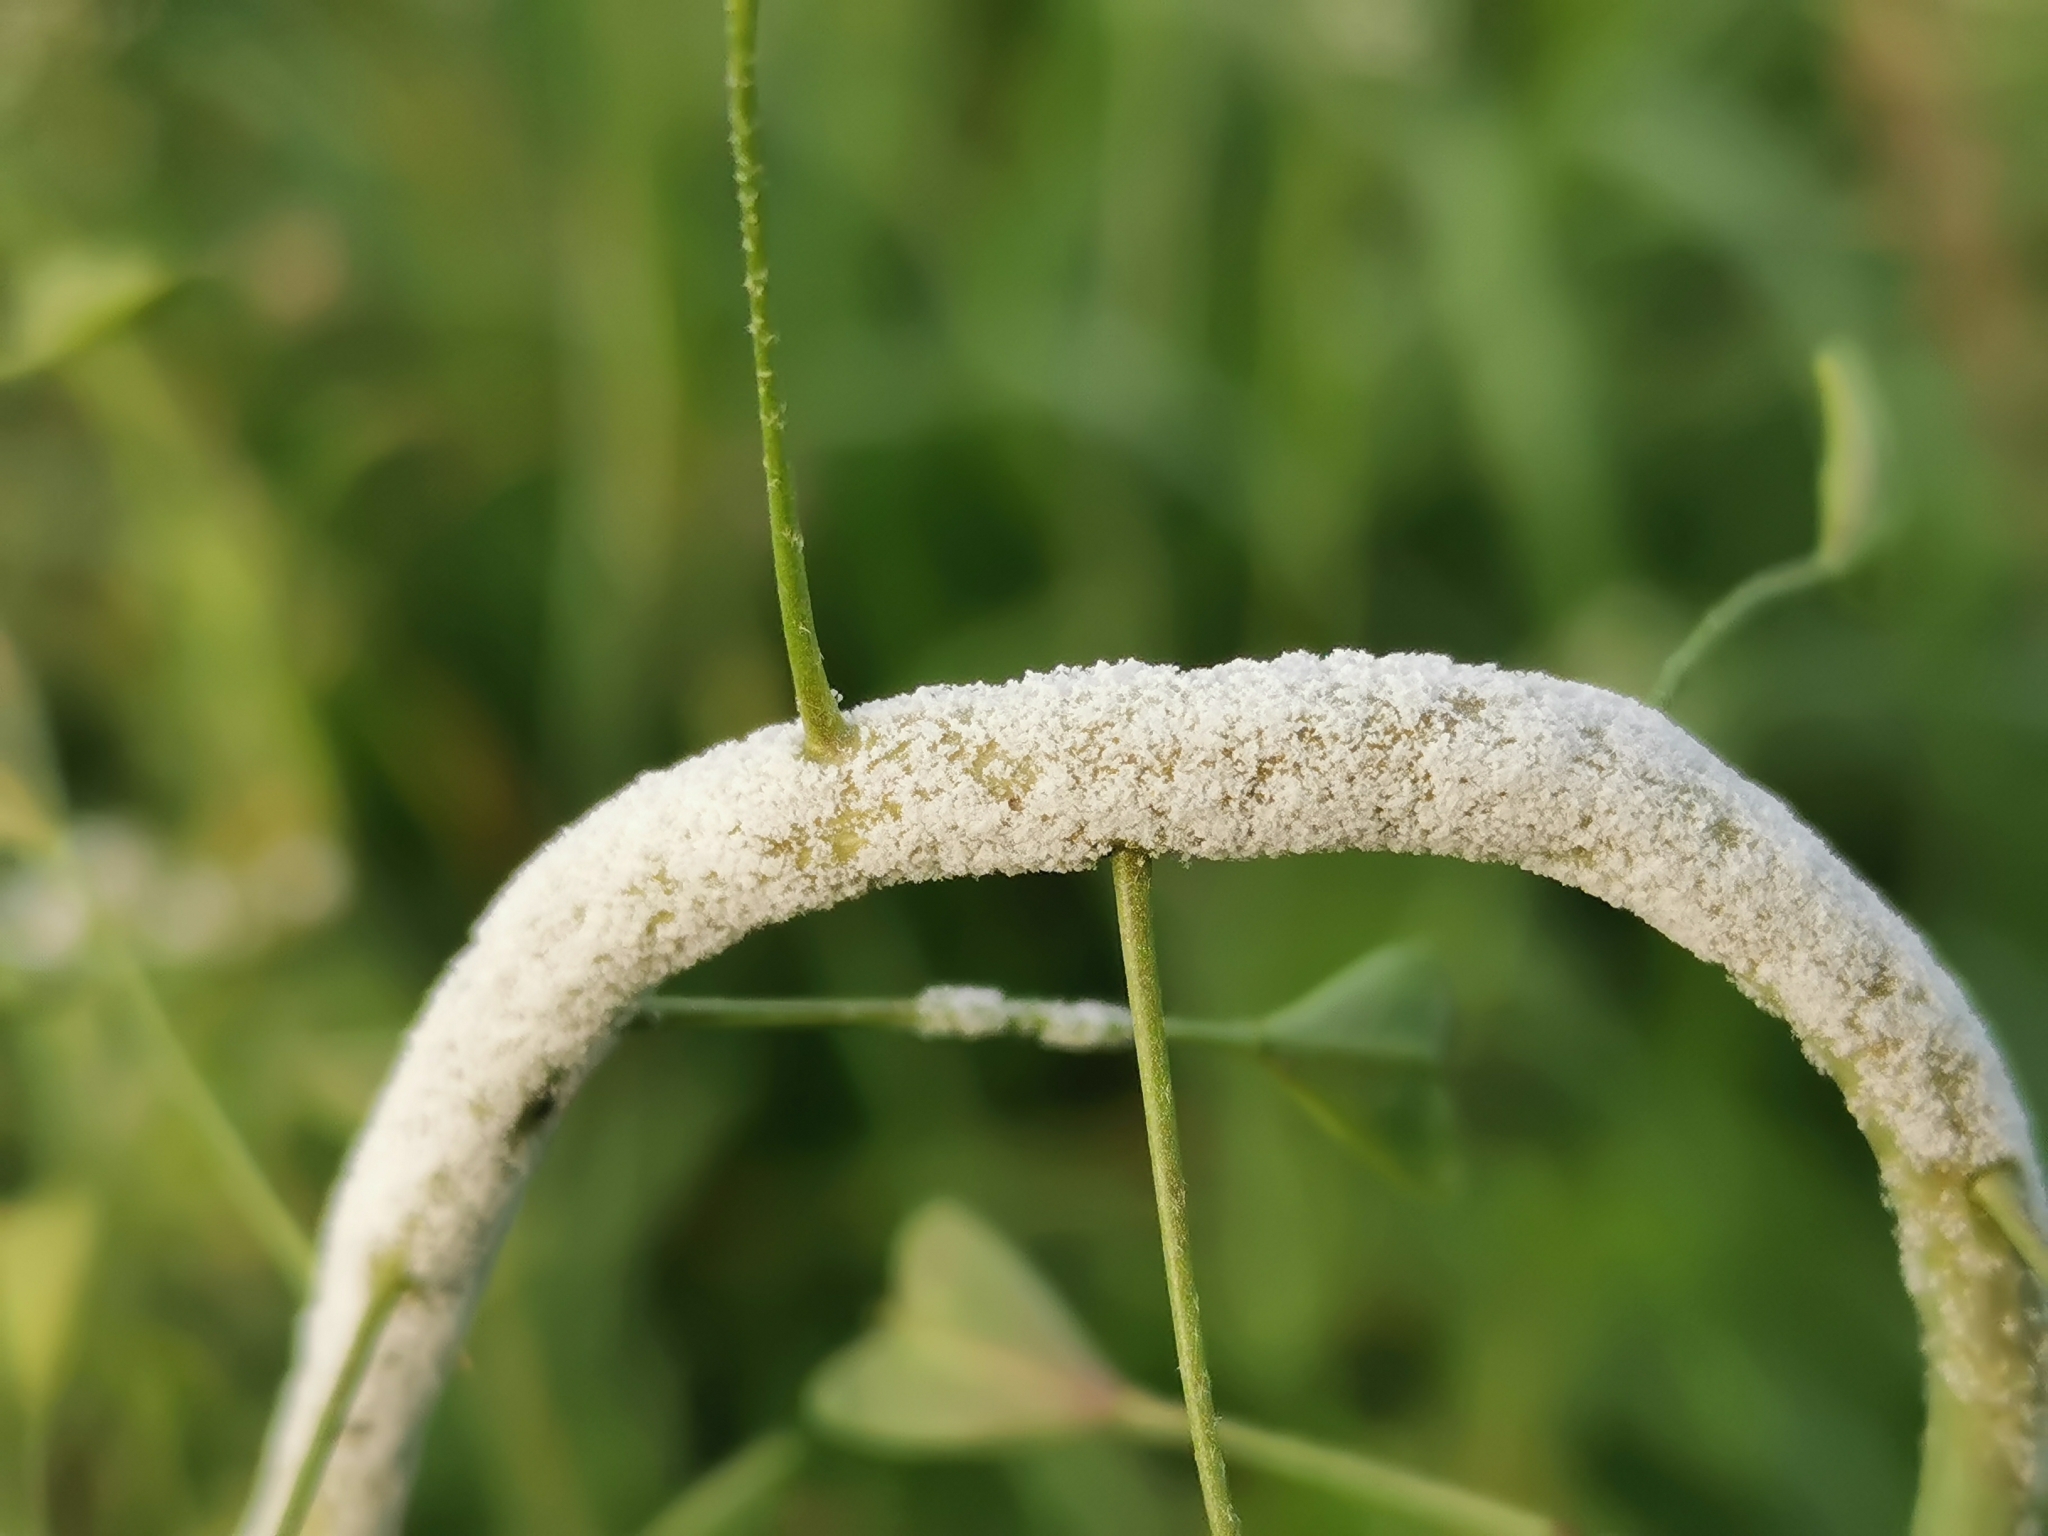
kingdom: Chromista
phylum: Oomycota
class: Peronosporea
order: Peronosporales
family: Peronosporaceae
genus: Hyaloperonospora
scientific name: Hyaloperonospora parasitica
